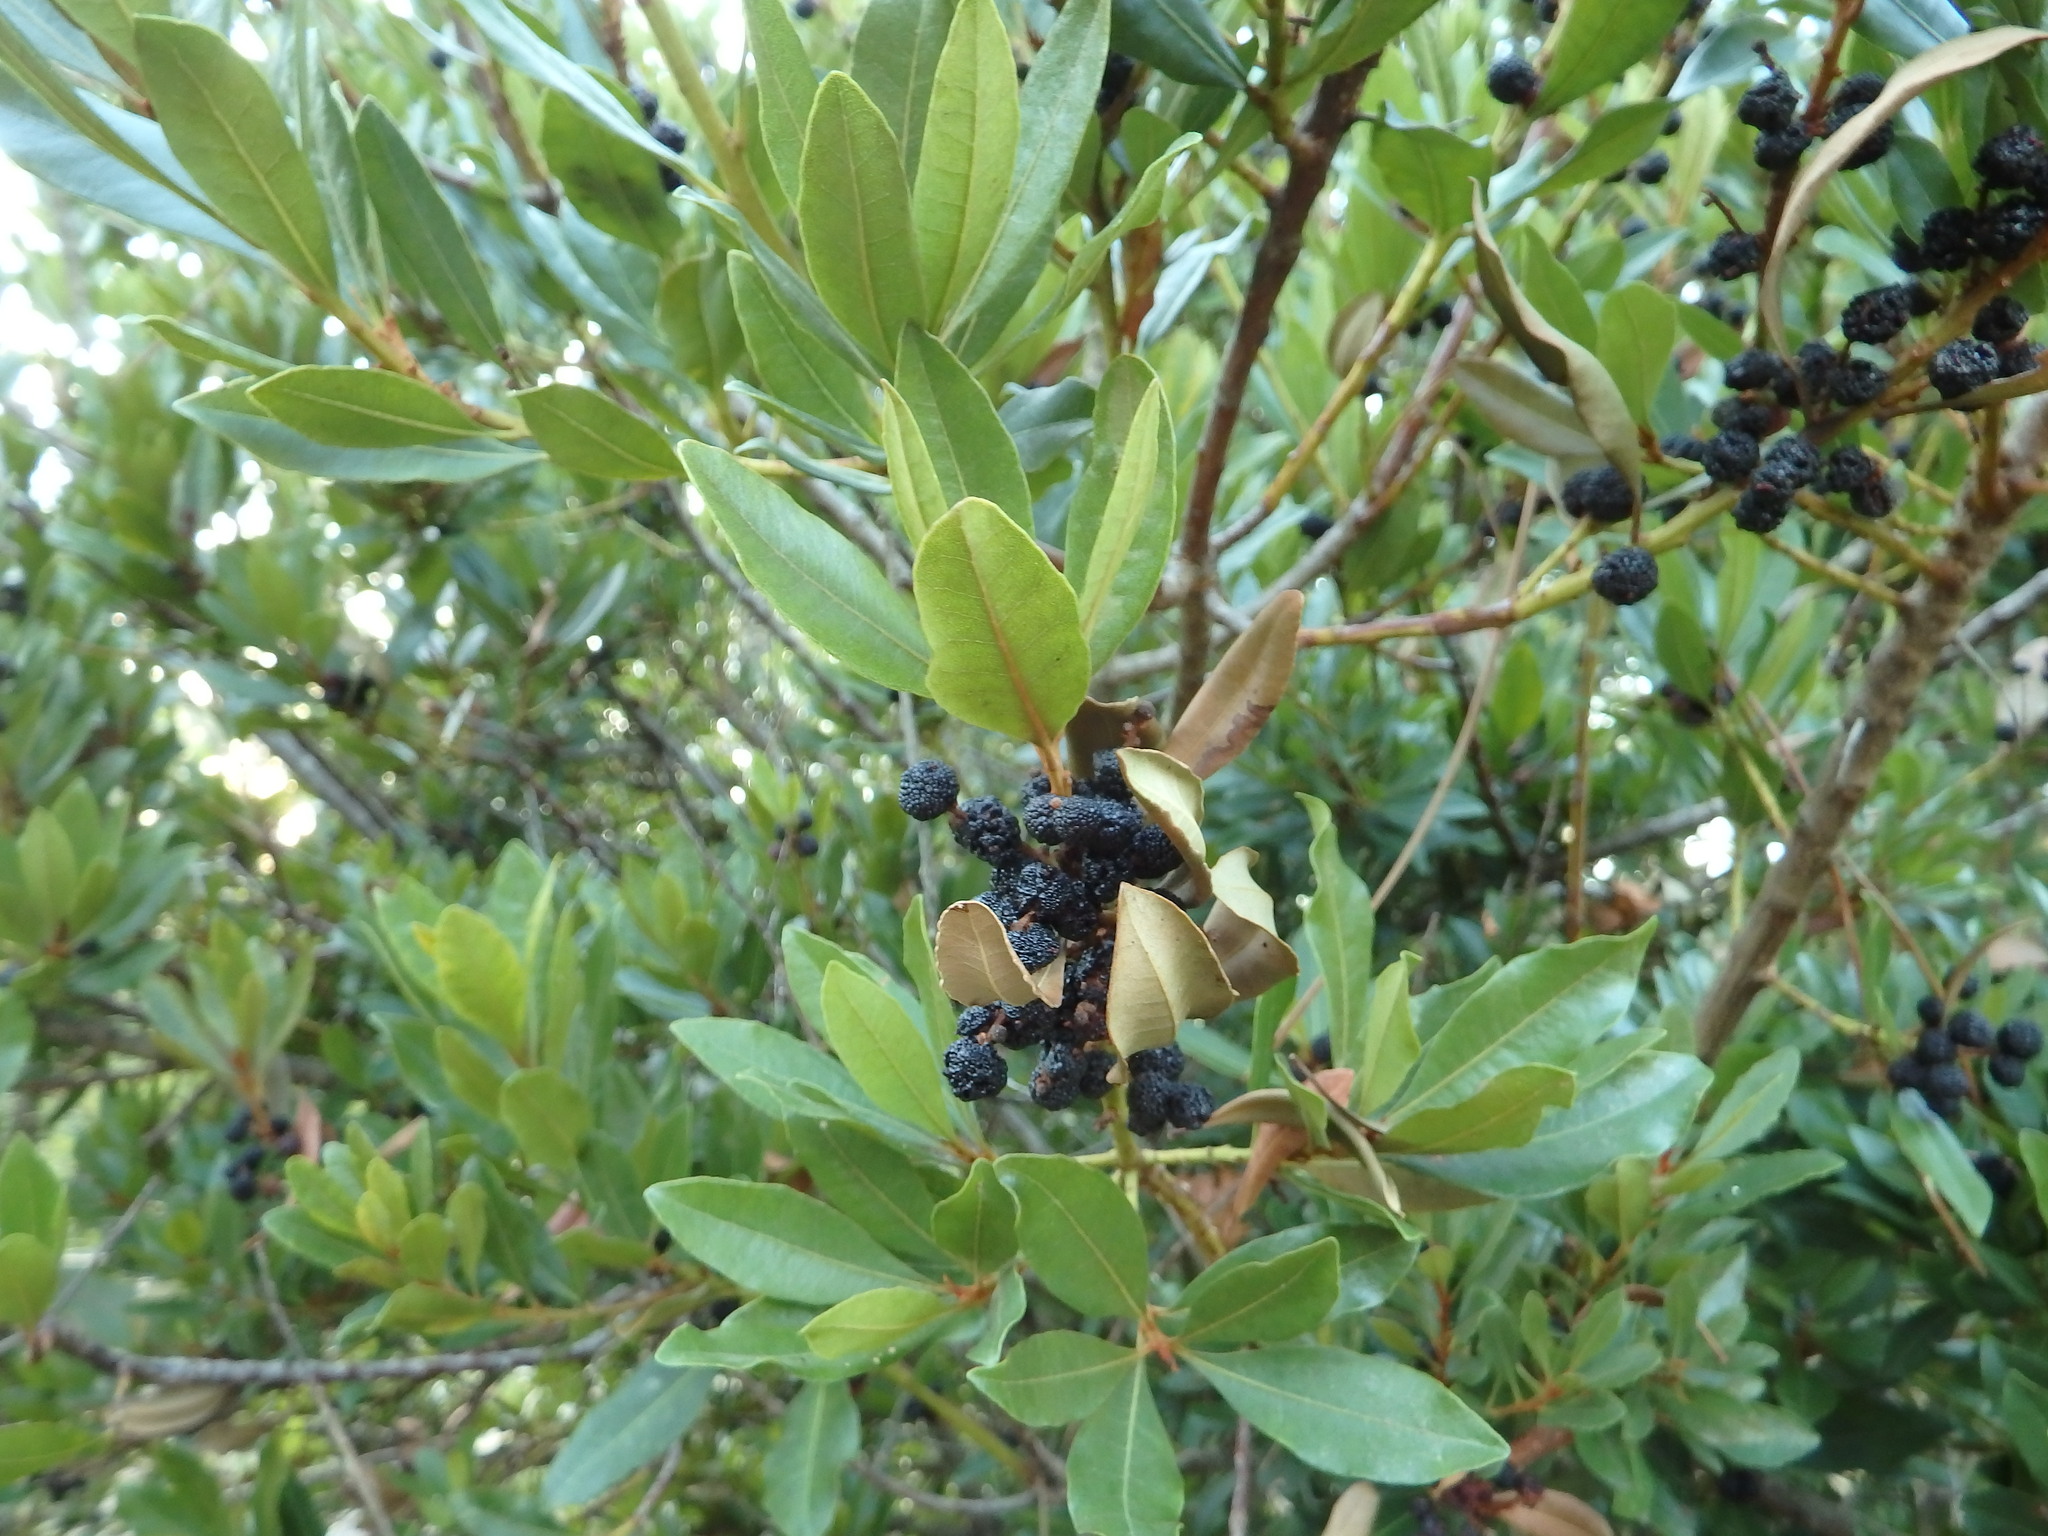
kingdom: Plantae
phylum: Tracheophyta
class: Magnoliopsida
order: Fagales
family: Myricaceae
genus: Morella
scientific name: Morella faya
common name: Firetree
